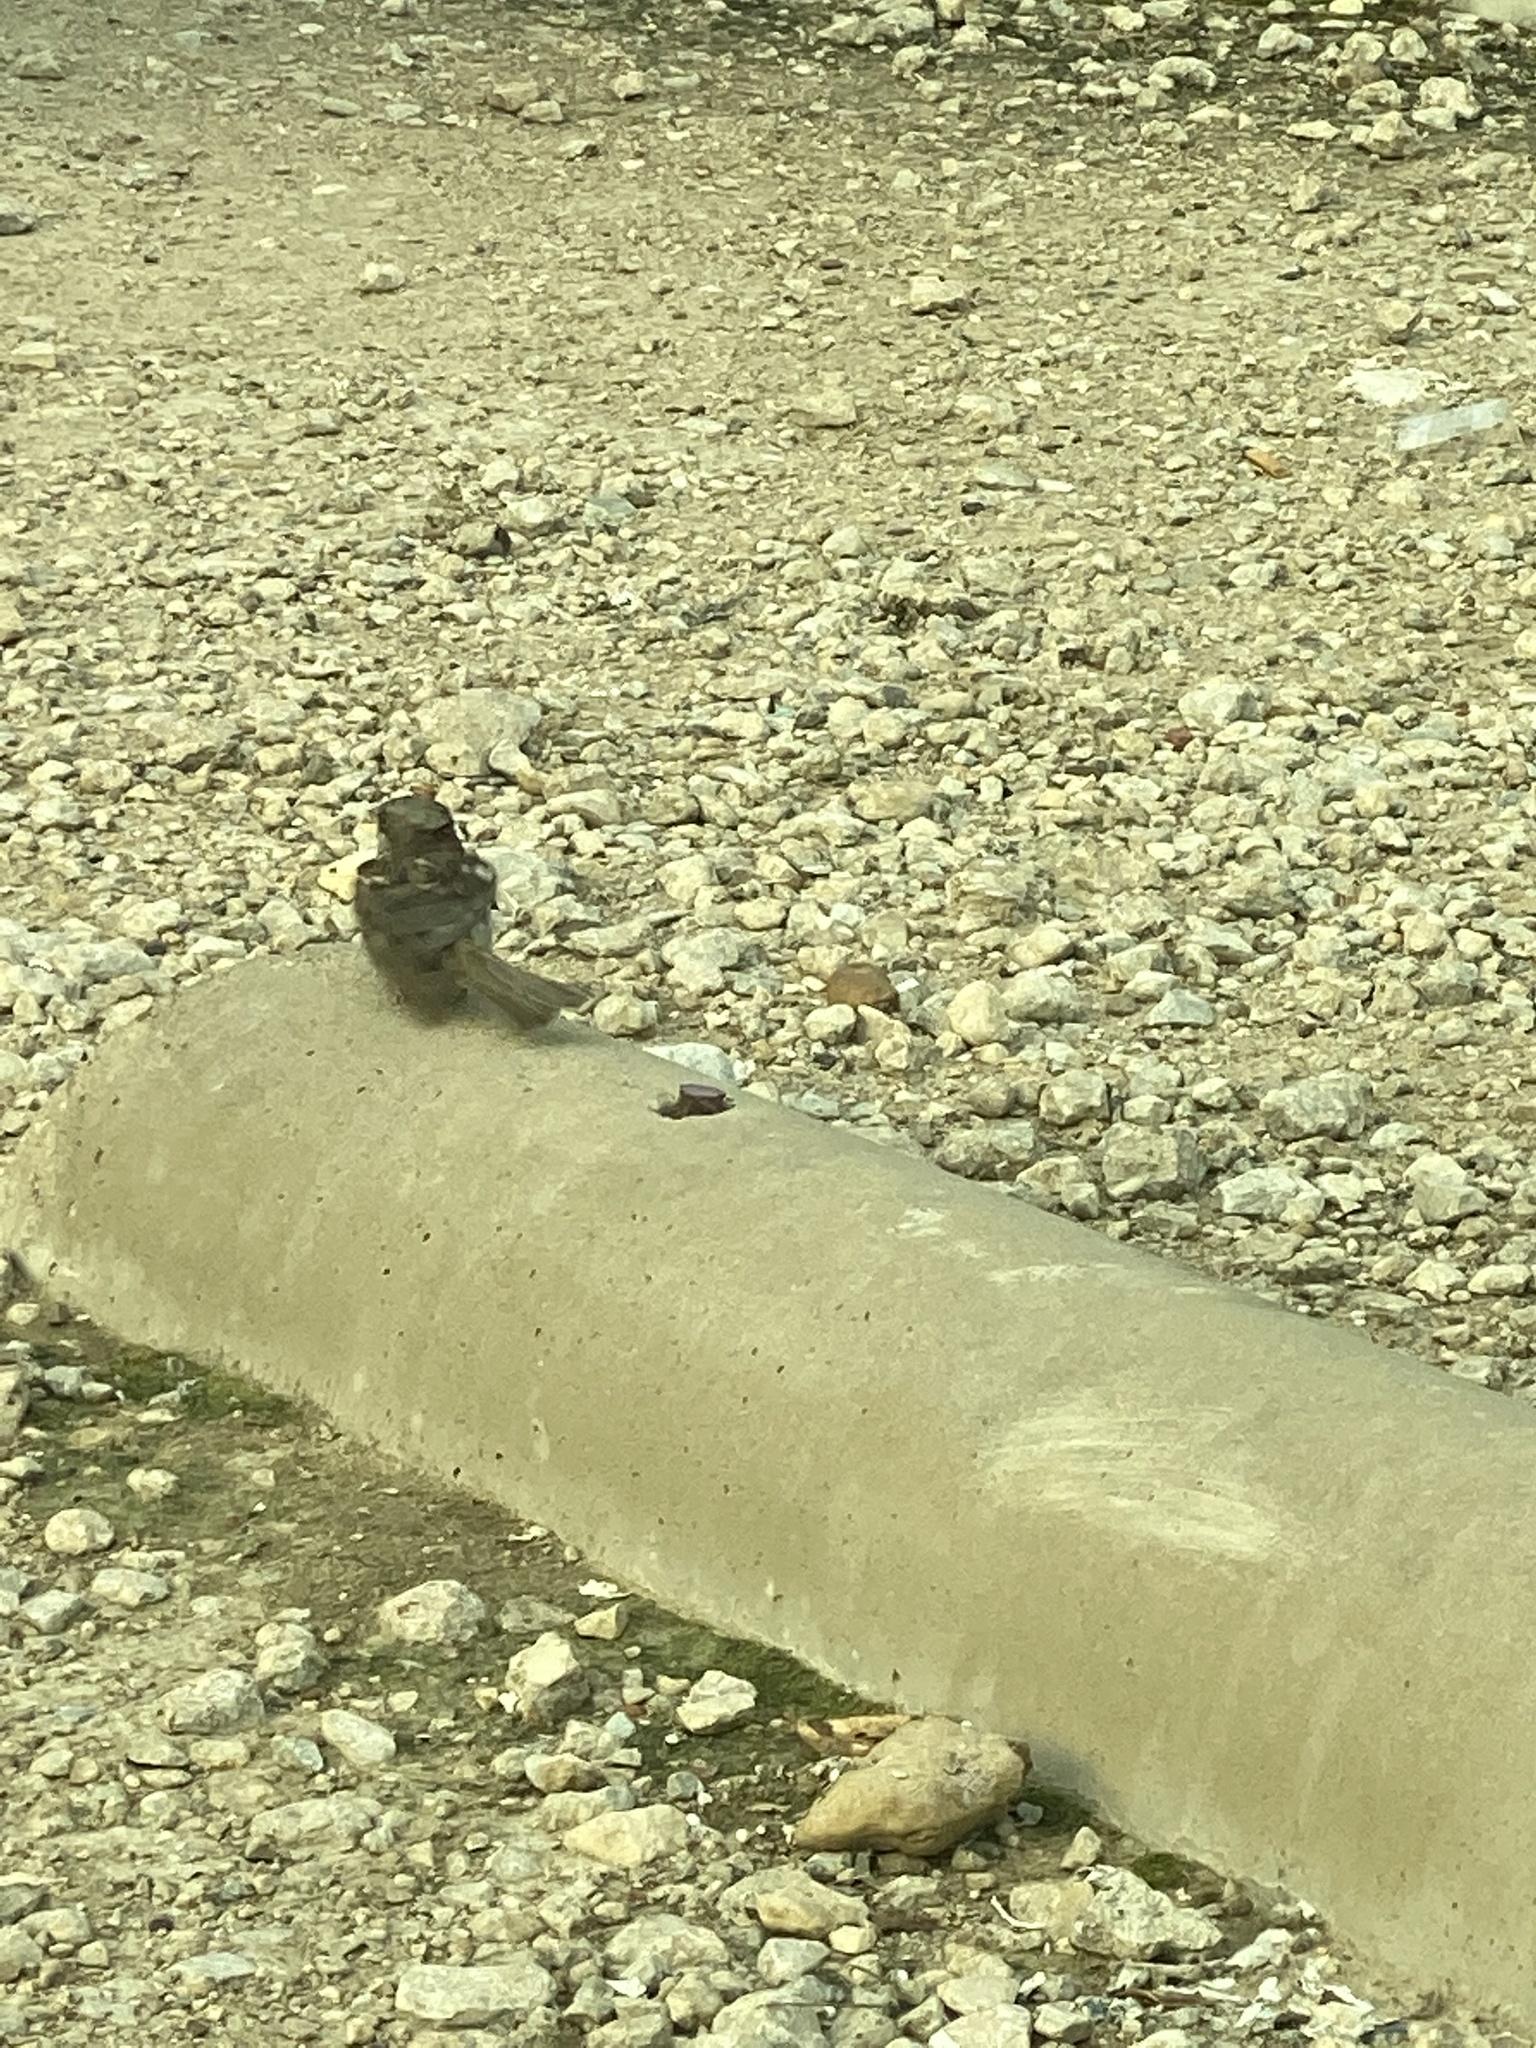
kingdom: Animalia
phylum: Chordata
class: Aves
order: Passeriformes
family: Passeridae
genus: Passer
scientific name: Passer domesticus
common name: House sparrow
